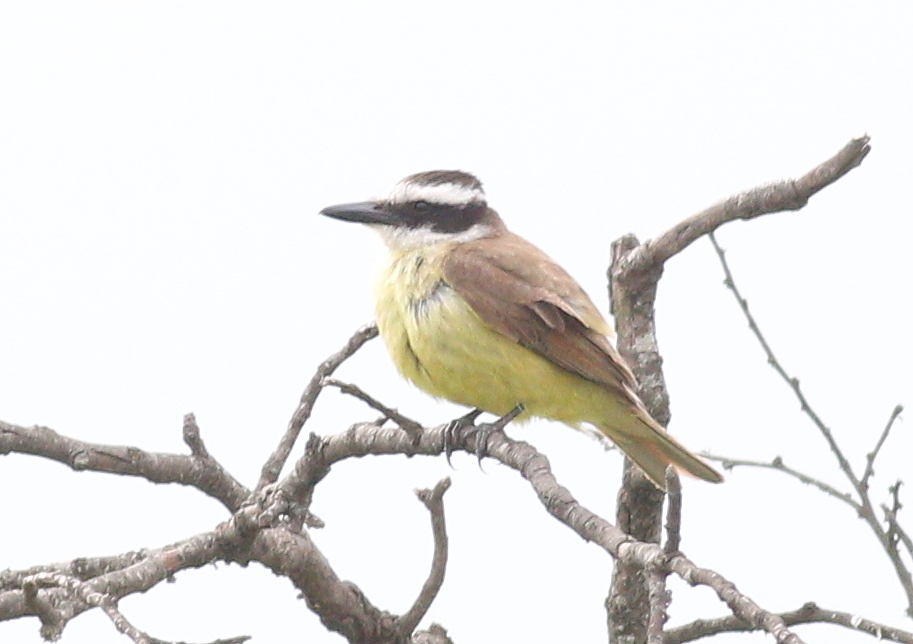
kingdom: Animalia
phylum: Chordata
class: Aves
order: Passeriformes
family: Tyrannidae
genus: Pitangus
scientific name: Pitangus sulphuratus
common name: Great kiskadee
